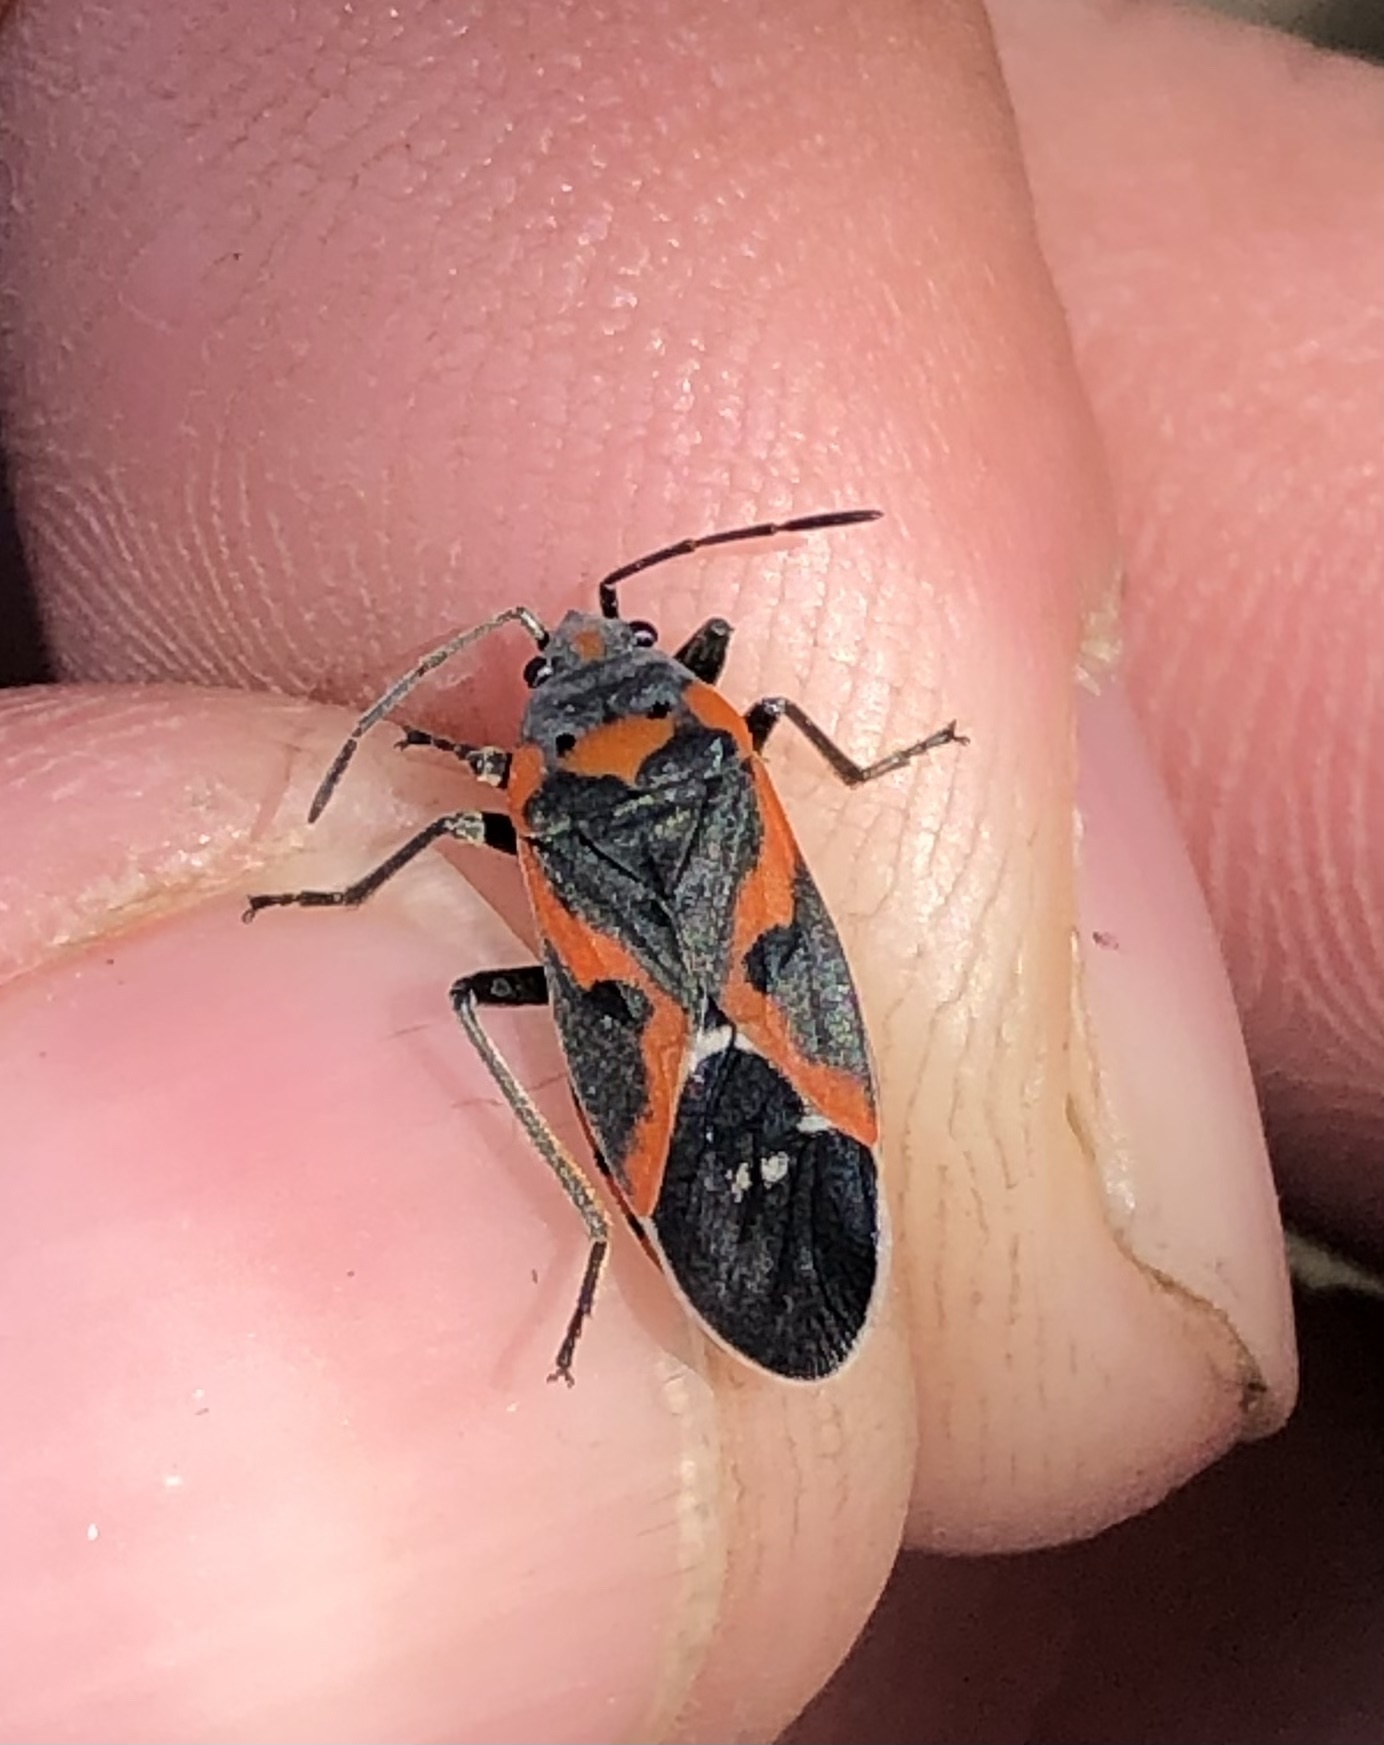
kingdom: Animalia
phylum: Arthropoda
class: Insecta
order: Hemiptera
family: Lygaeidae
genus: Lygaeus
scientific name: Lygaeus kalmii
